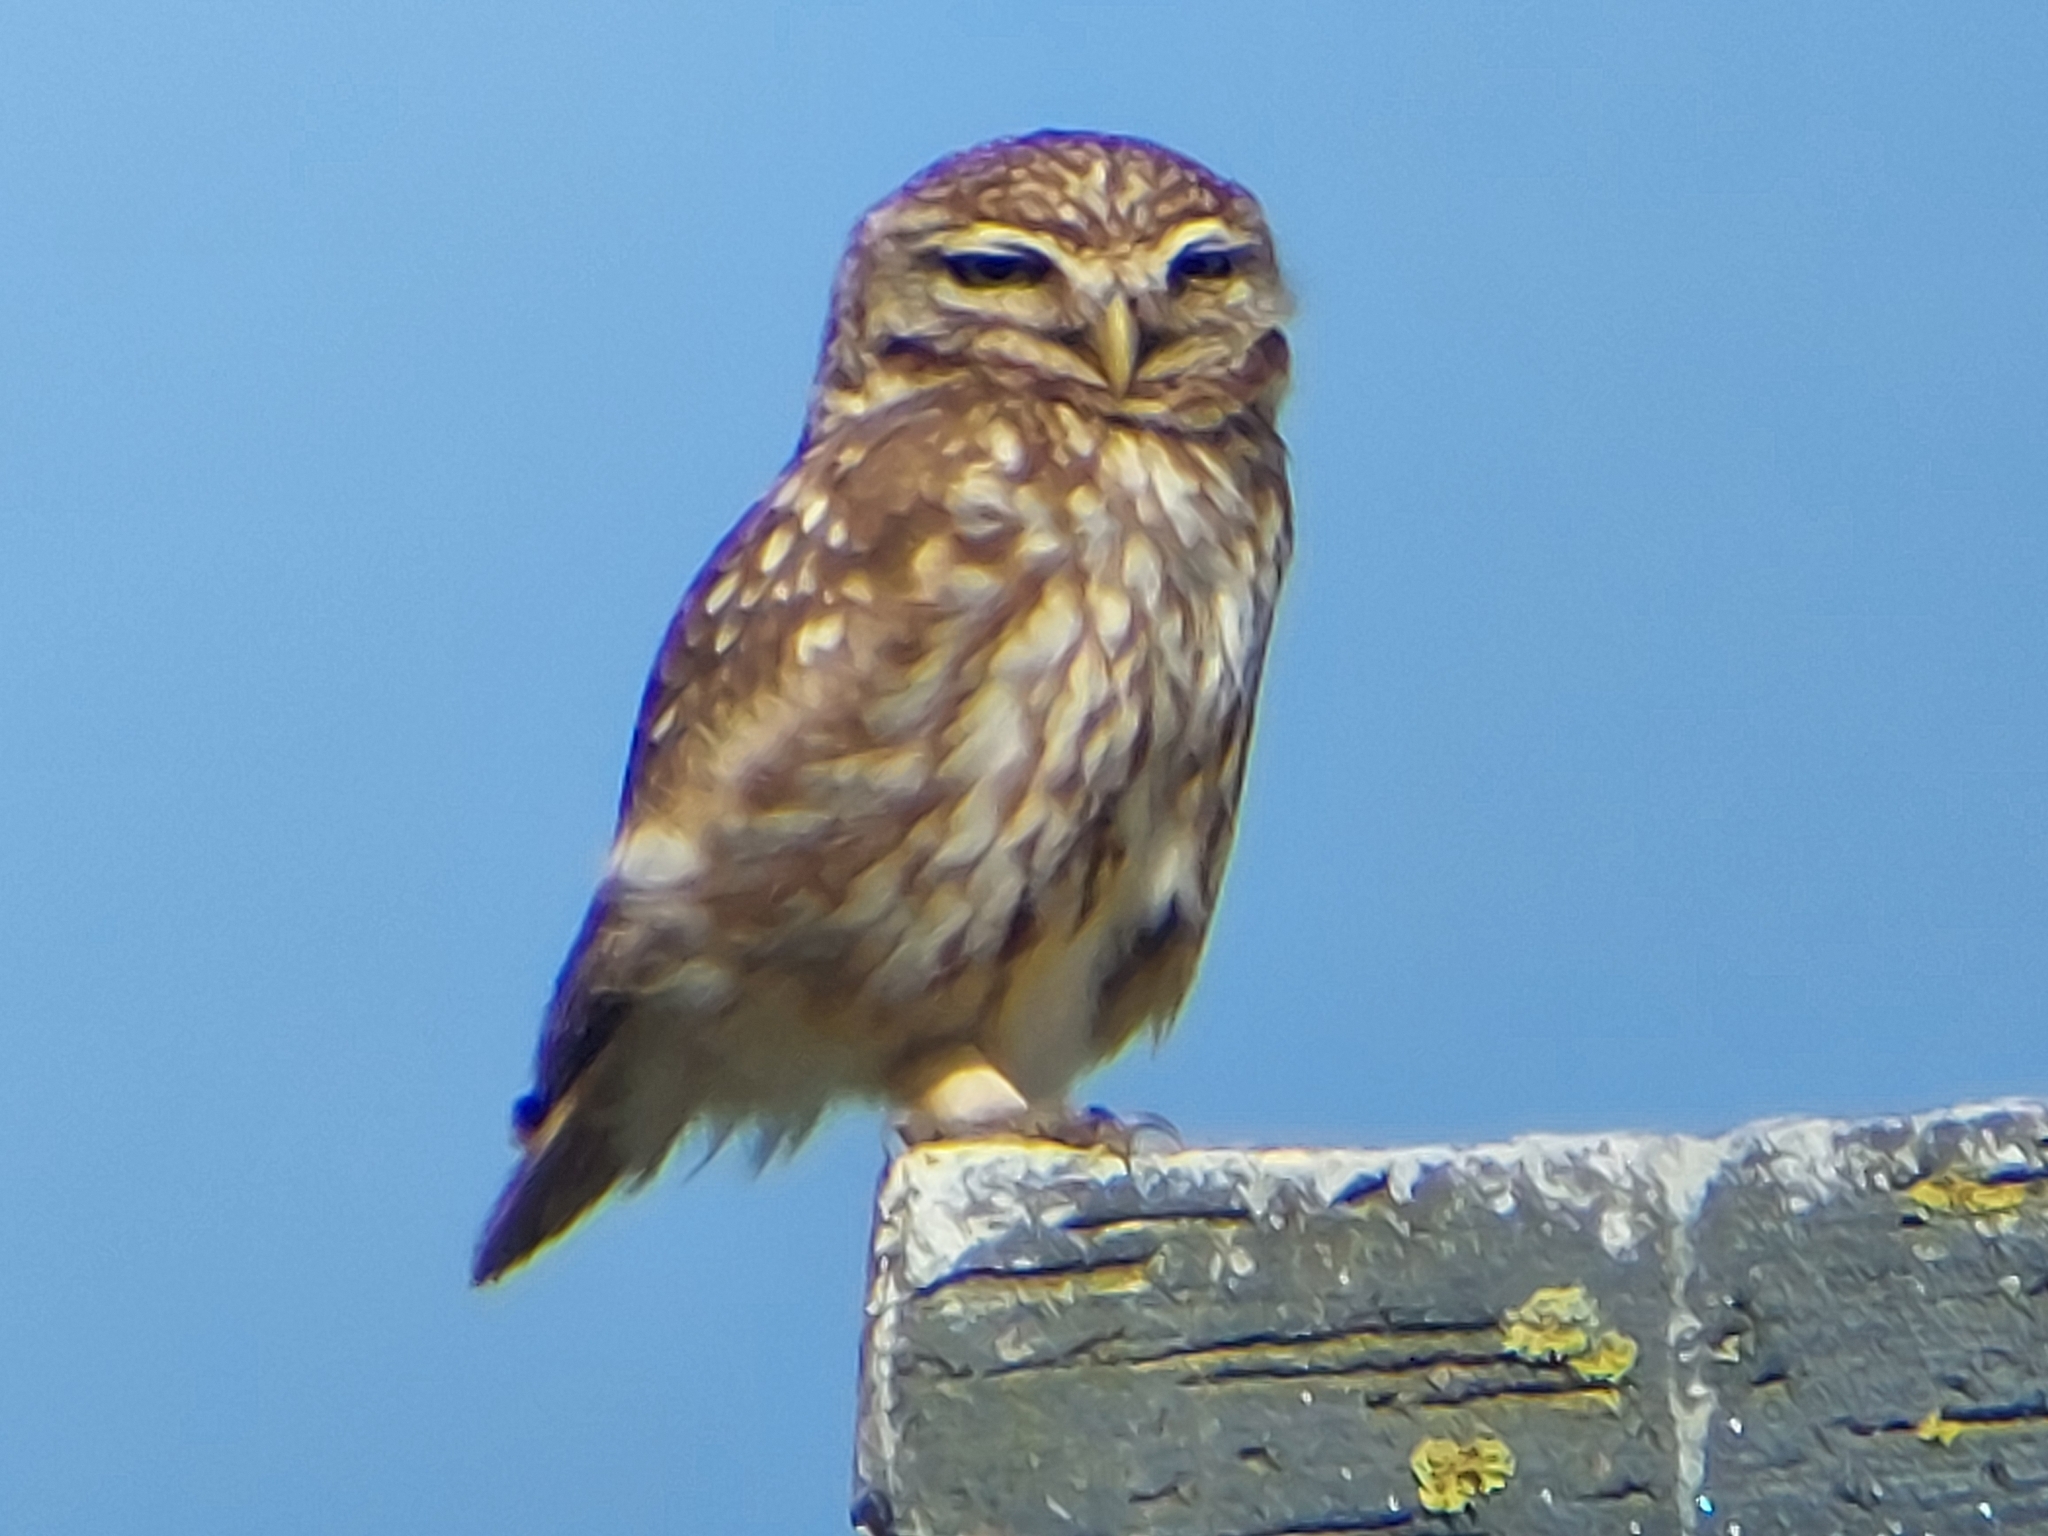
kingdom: Animalia
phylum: Chordata
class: Aves
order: Strigiformes
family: Strigidae
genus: Athene
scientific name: Athene noctua
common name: Little owl
